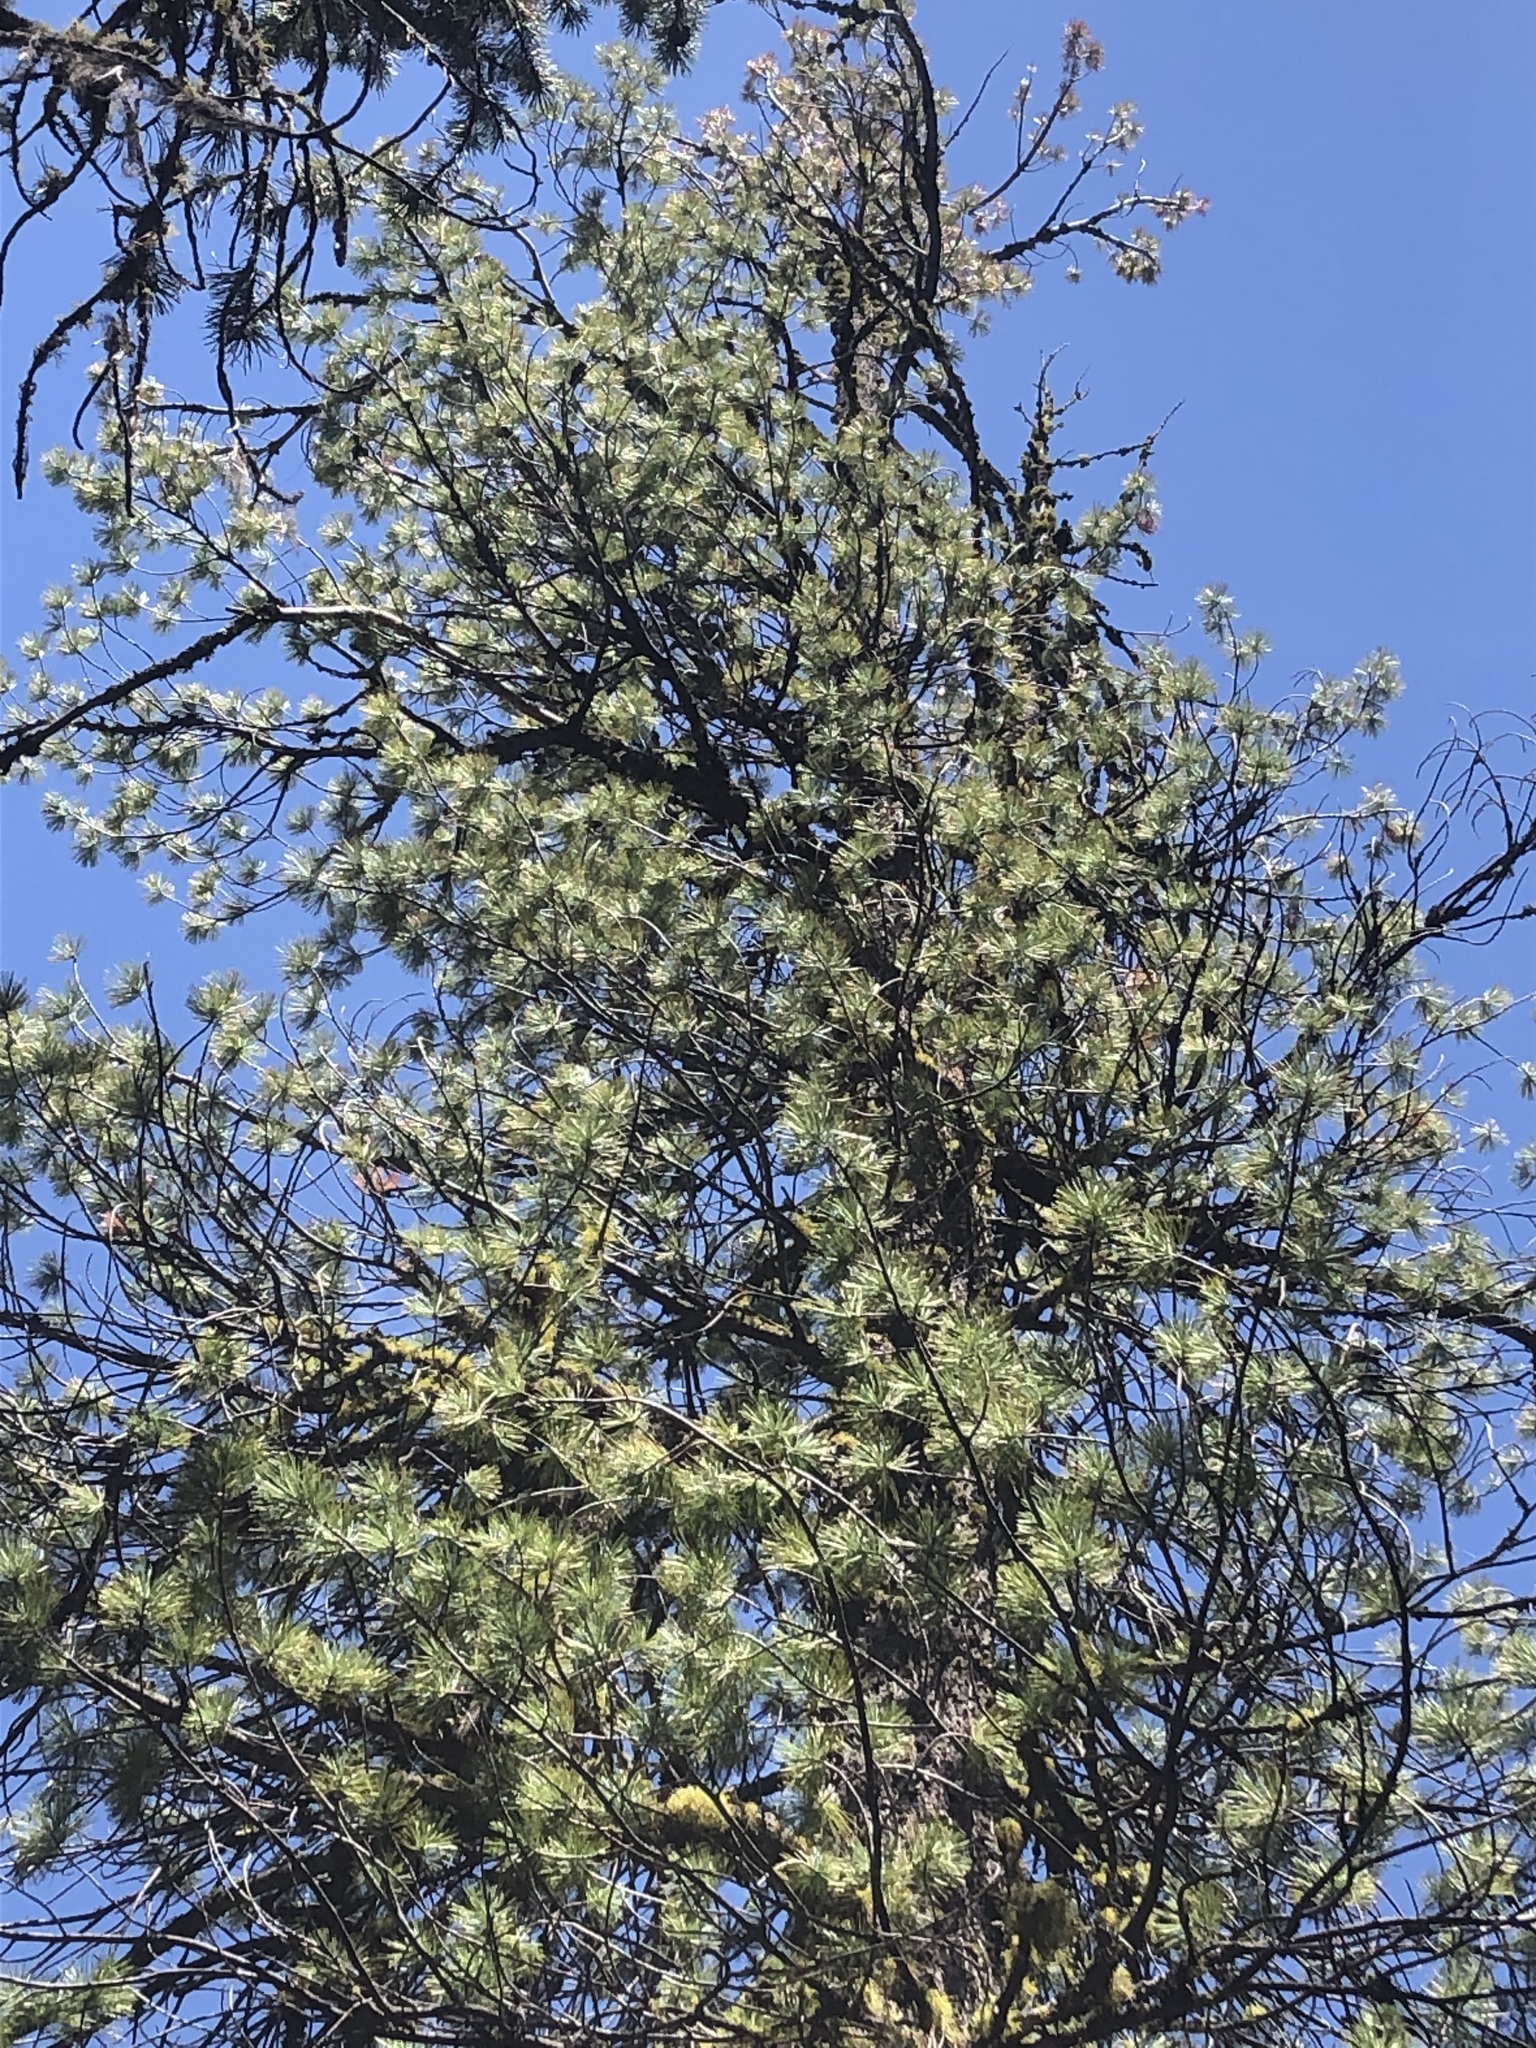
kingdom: Plantae
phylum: Tracheophyta
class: Pinopsida
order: Pinales
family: Pinaceae
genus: Pinus
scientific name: Pinus monticola
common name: Western white pine
